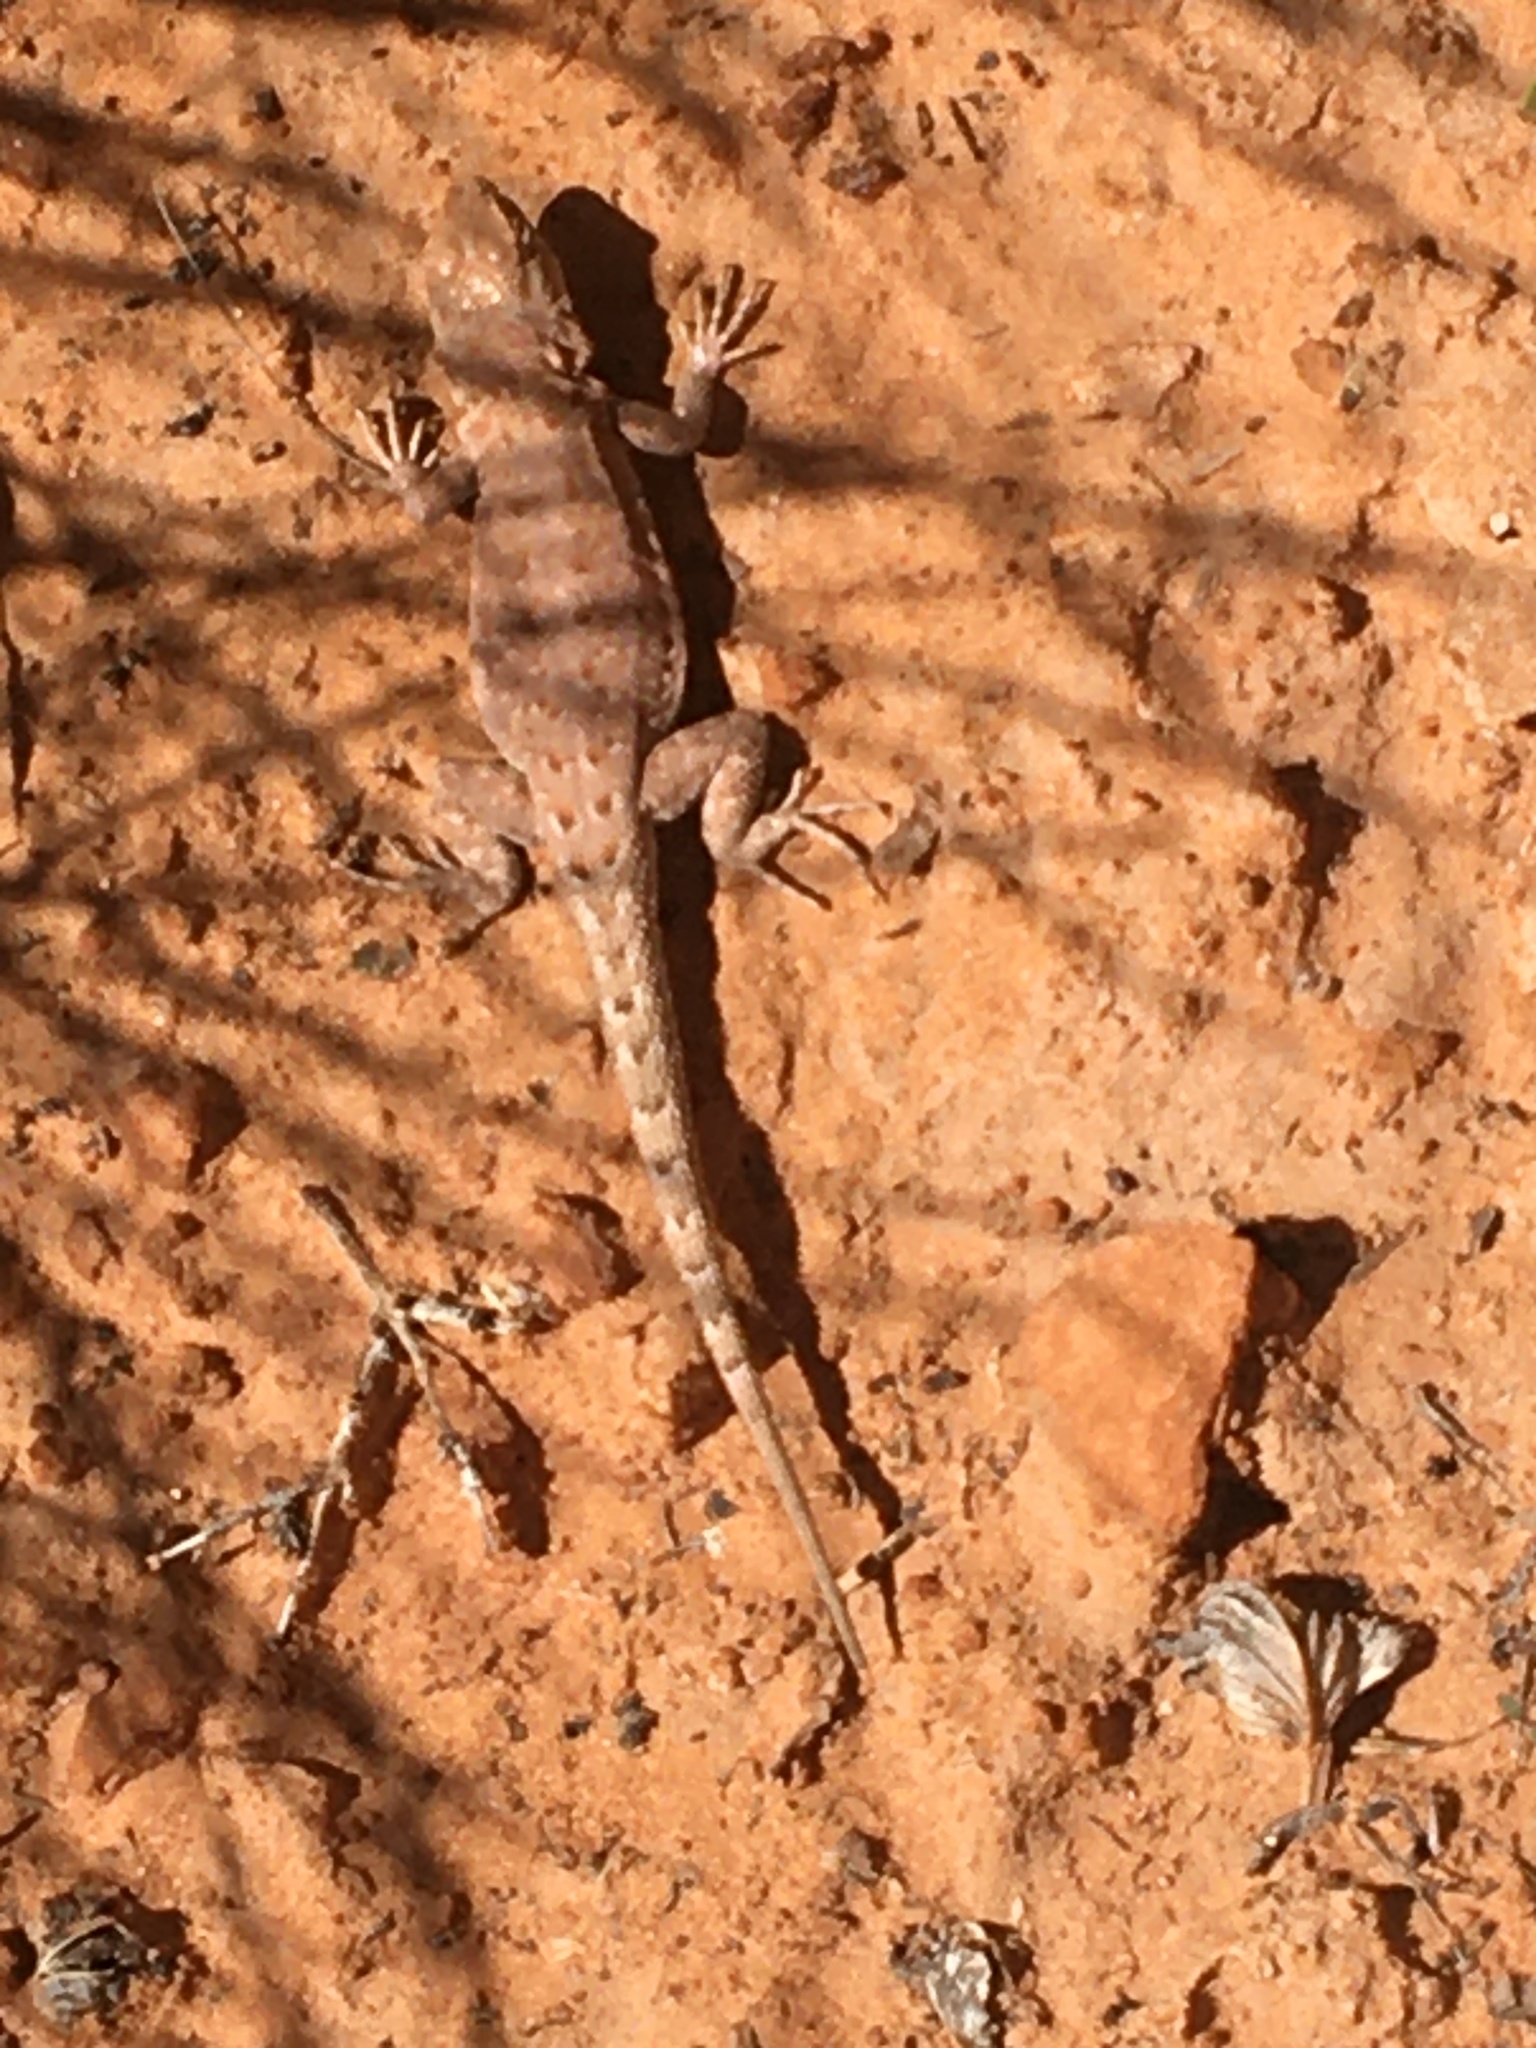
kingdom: Animalia
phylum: Chordata
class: Squamata
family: Phrynosomatidae
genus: Uta
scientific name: Uta stansburiana
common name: Side-blotched lizard
